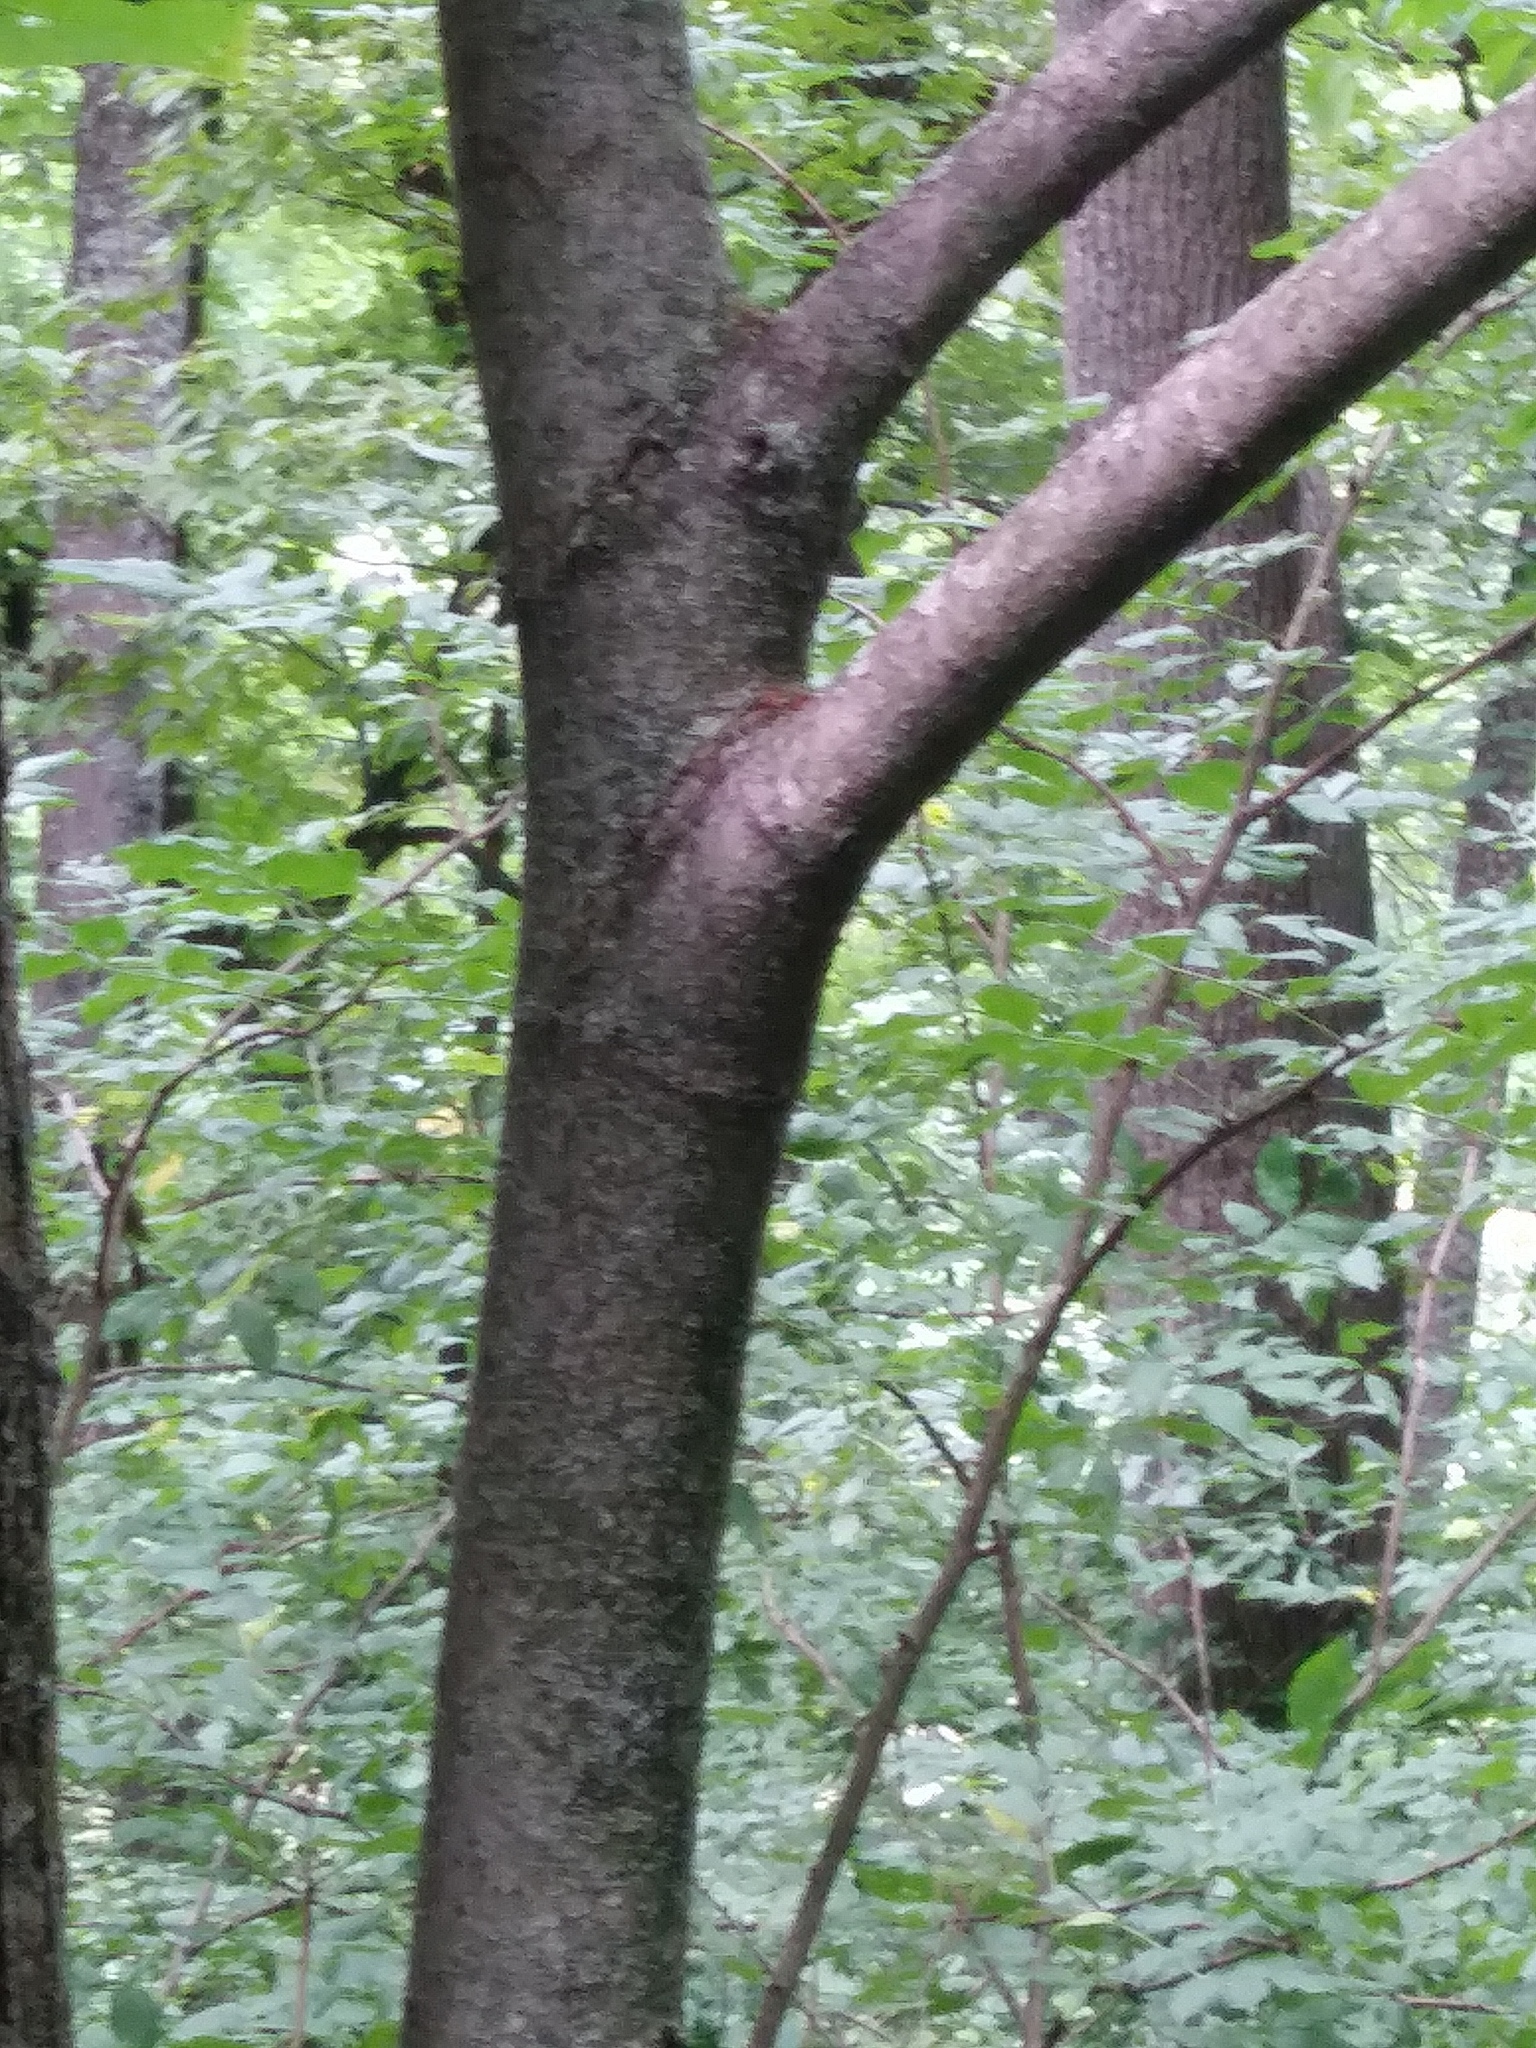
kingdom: Plantae
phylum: Tracheophyta
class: Magnoliopsida
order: Malvales
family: Malvaceae
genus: Tilia
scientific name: Tilia americana
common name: Basswood
